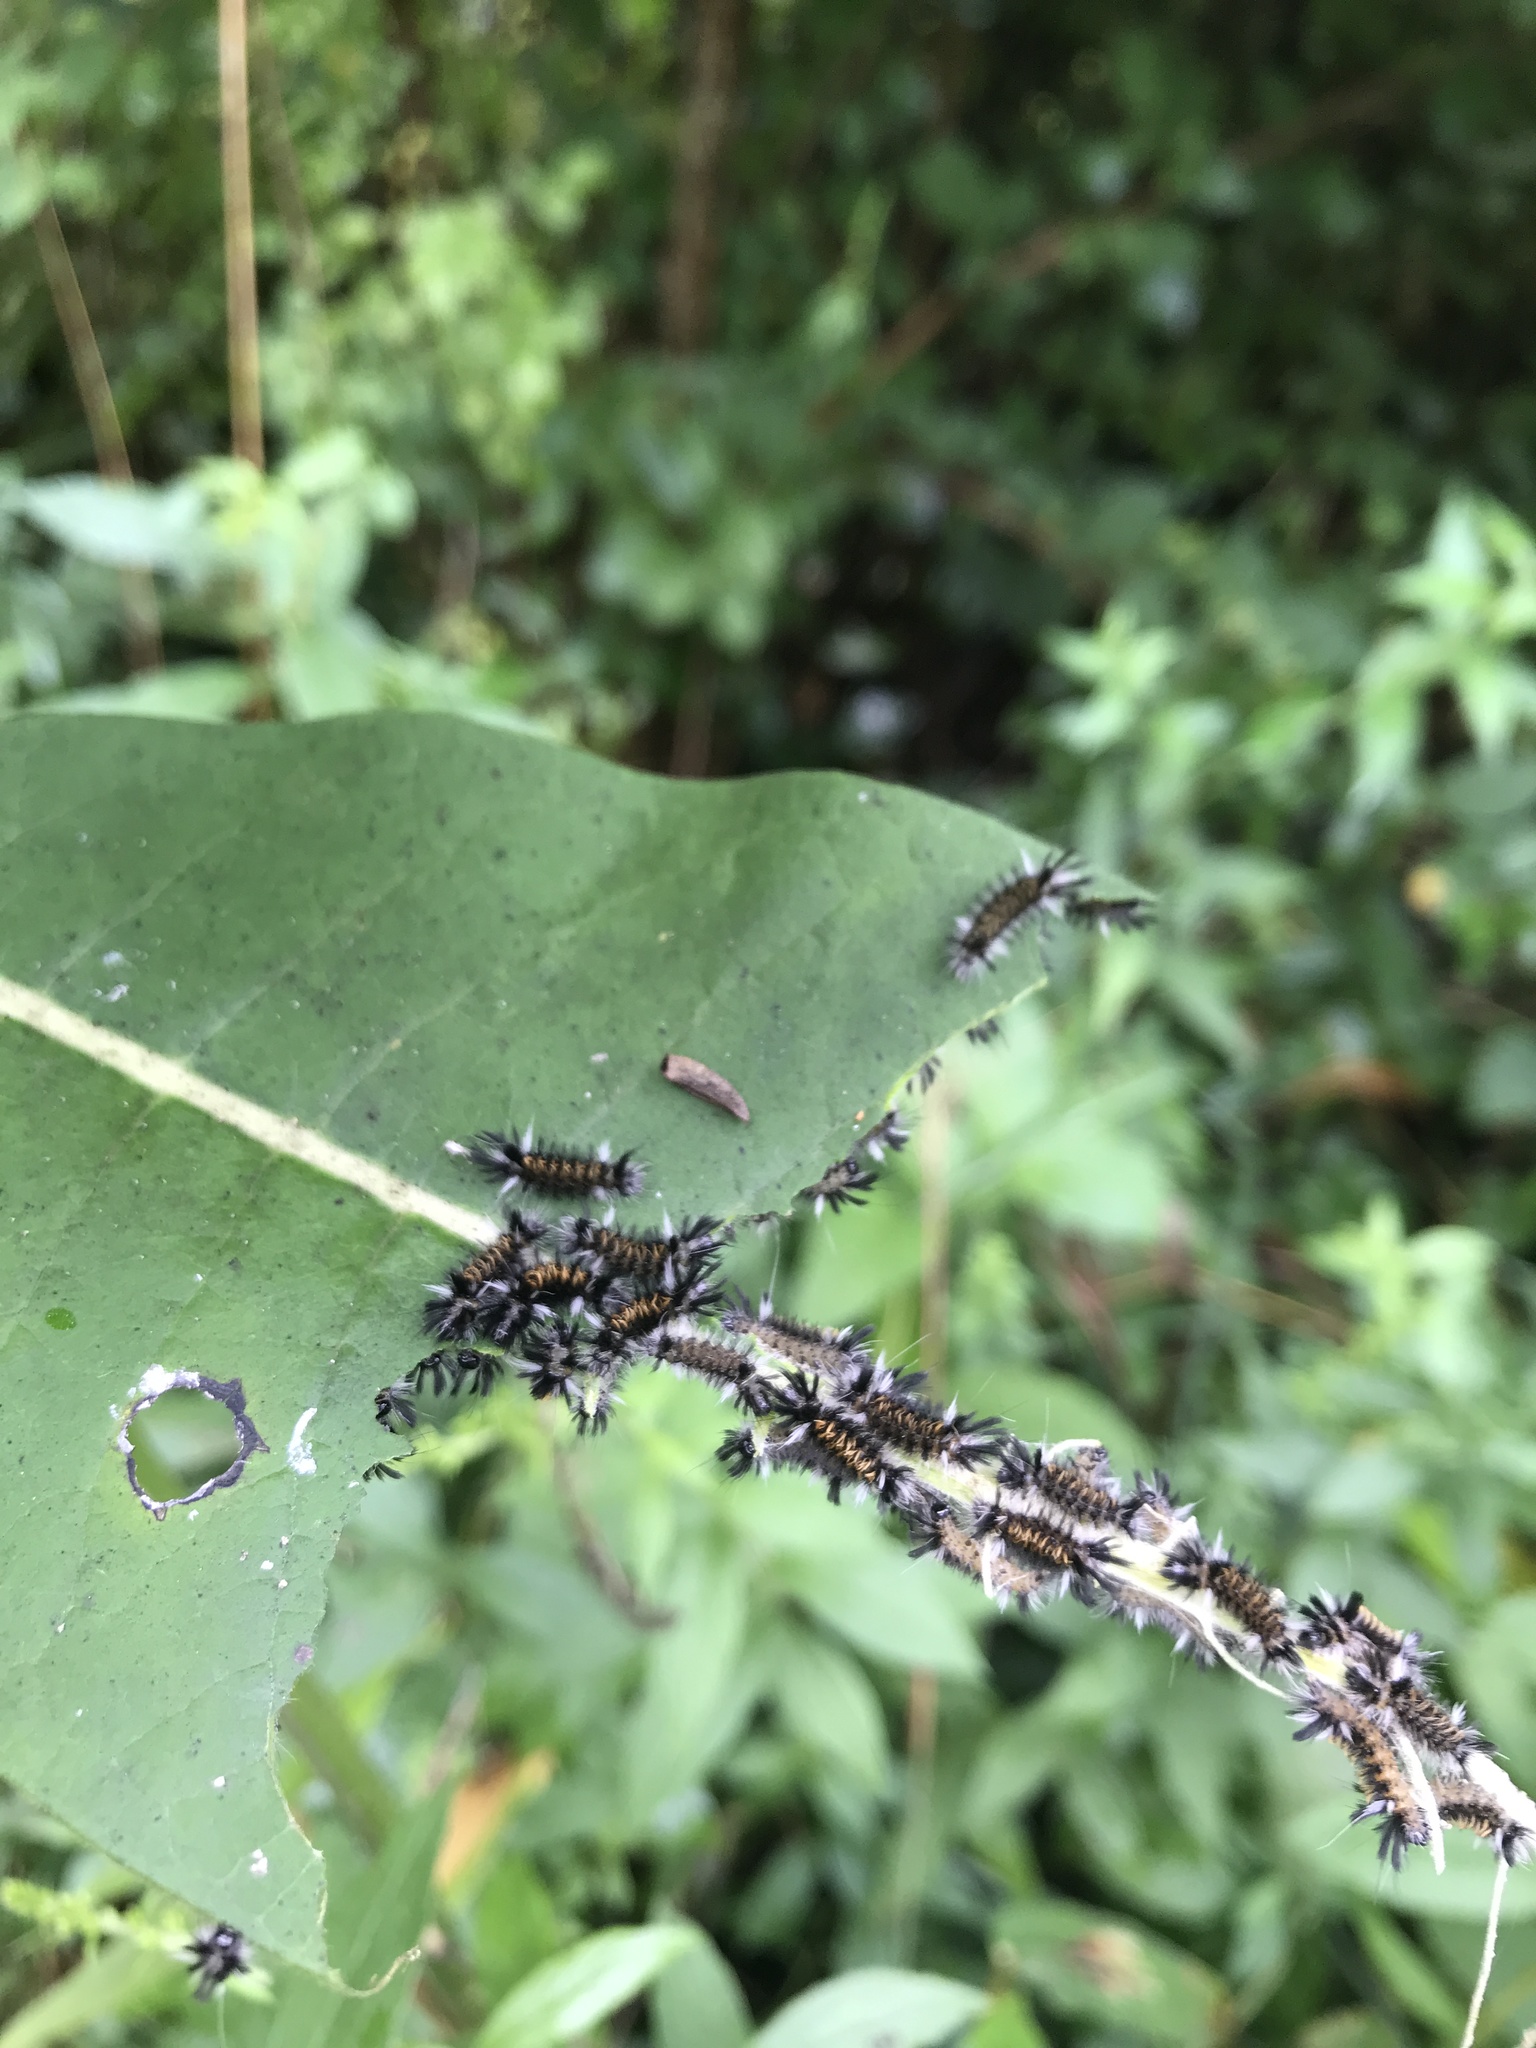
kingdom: Animalia
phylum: Arthropoda
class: Insecta
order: Lepidoptera
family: Erebidae
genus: Euchaetes
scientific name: Euchaetes egle
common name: Milkweed tussock moth
